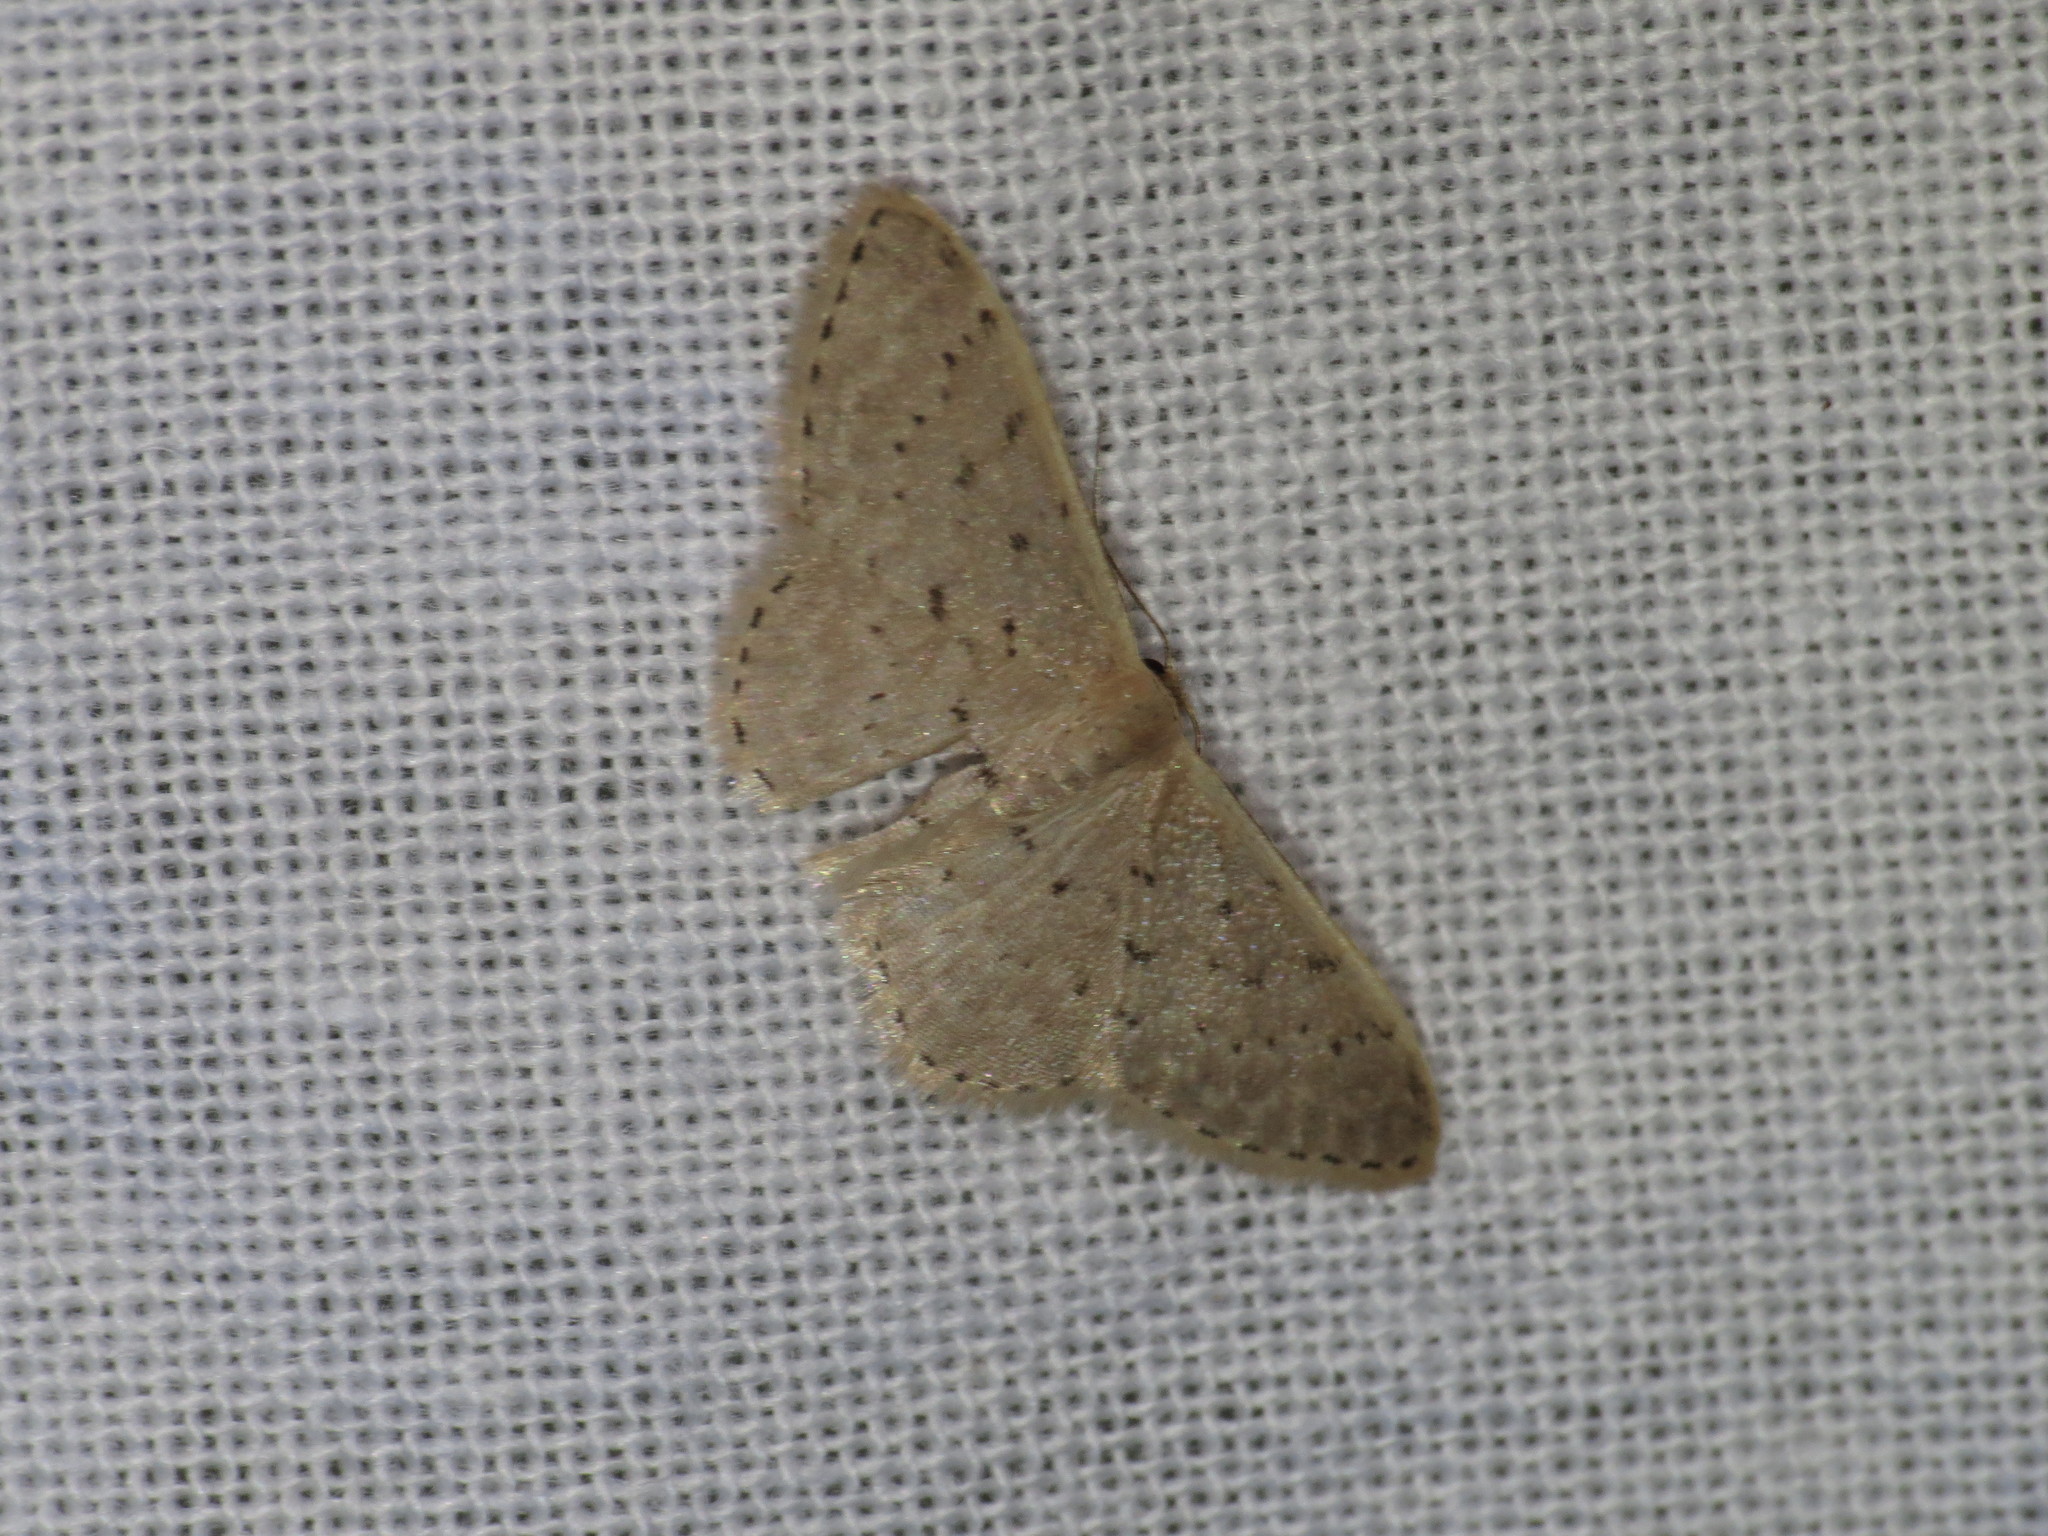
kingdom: Animalia
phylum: Arthropoda
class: Insecta
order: Lepidoptera
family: Geometridae
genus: Idaea
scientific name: Idaea philocosma
